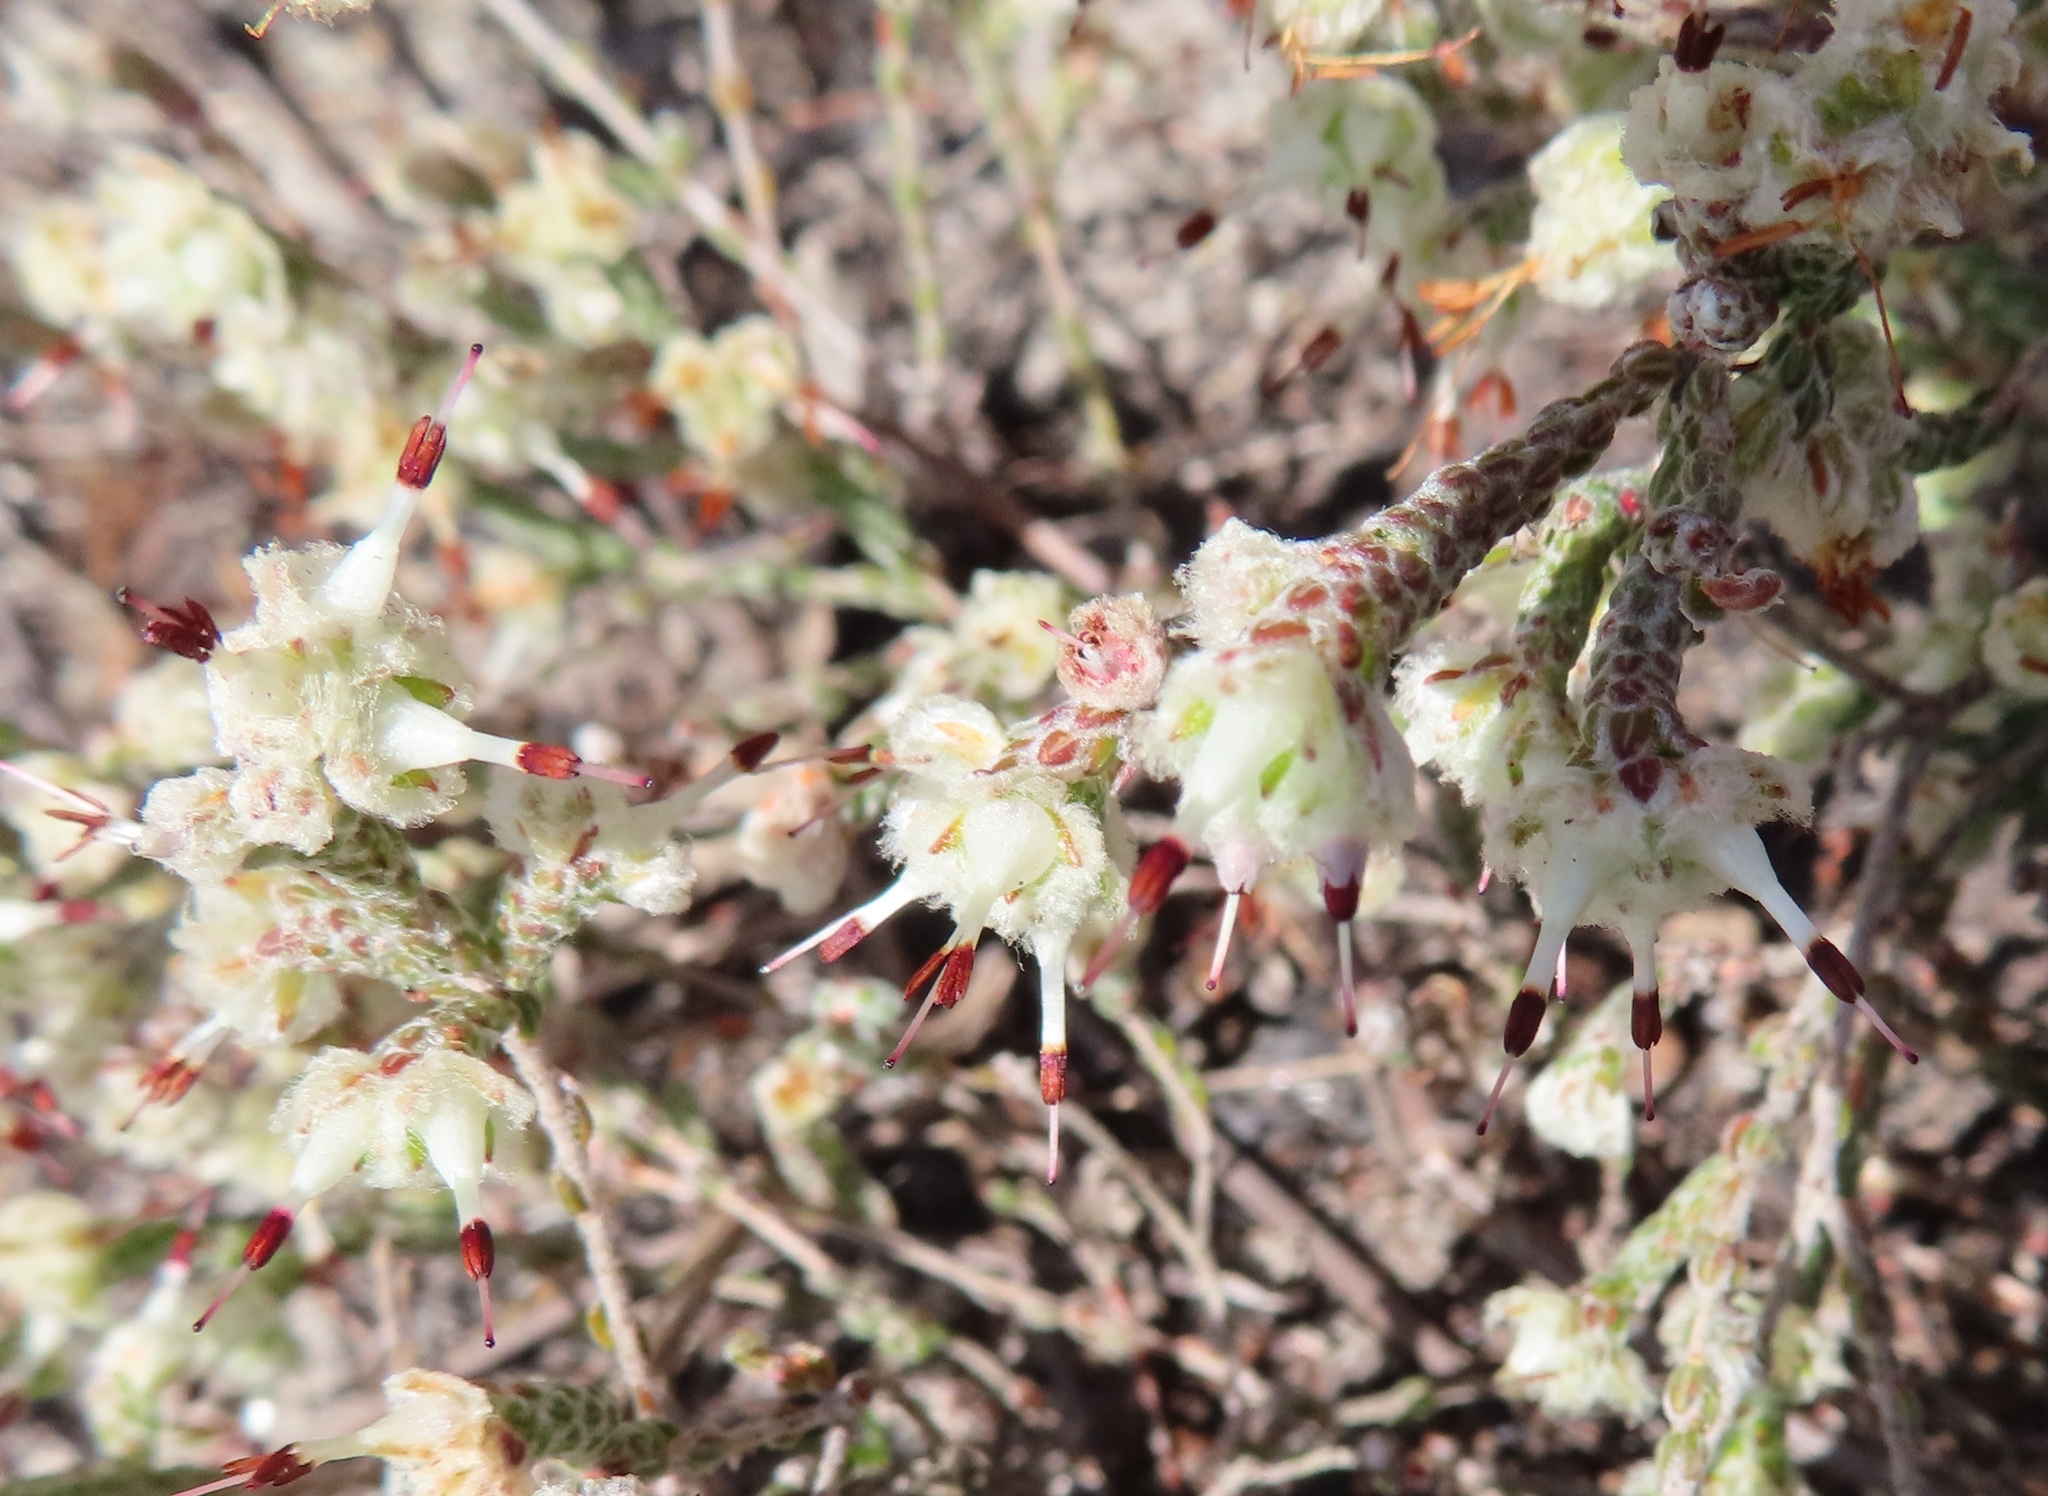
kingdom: Plantae
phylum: Tracheophyta
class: Magnoliopsida
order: Ericales
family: Ericaceae
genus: Erica
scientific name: Erica xeranthemifolia
